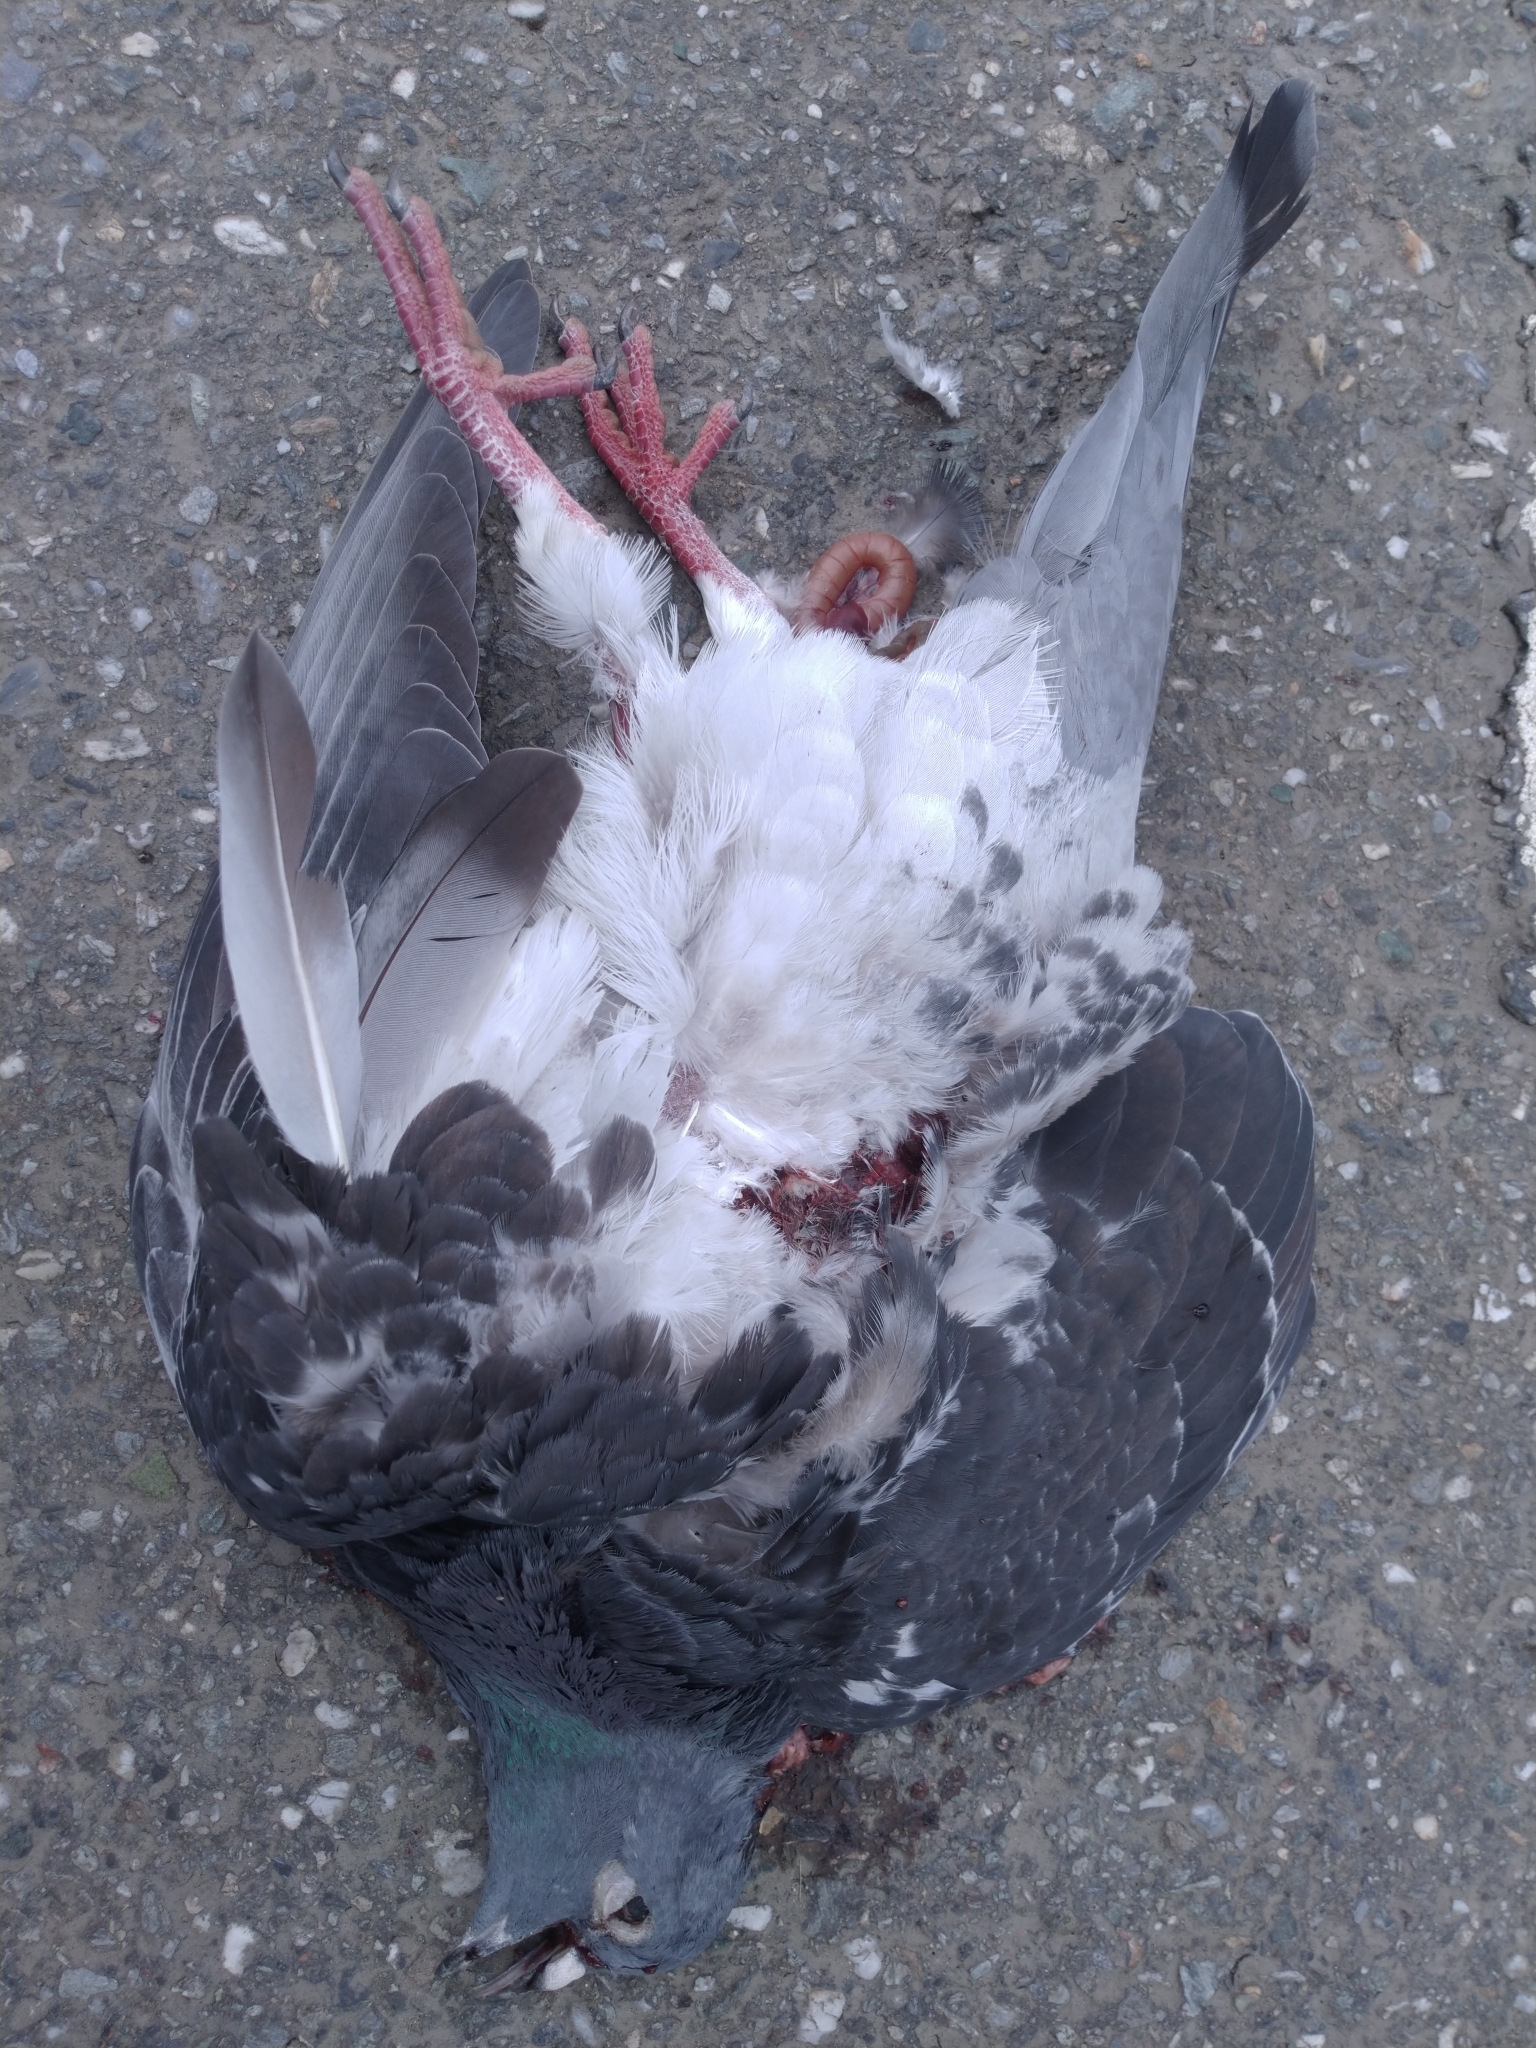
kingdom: Animalia
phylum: Chordata
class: Aves
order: Columbiformes
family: Columbidae
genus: Columba
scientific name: Columba livia
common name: Rock pigeon
